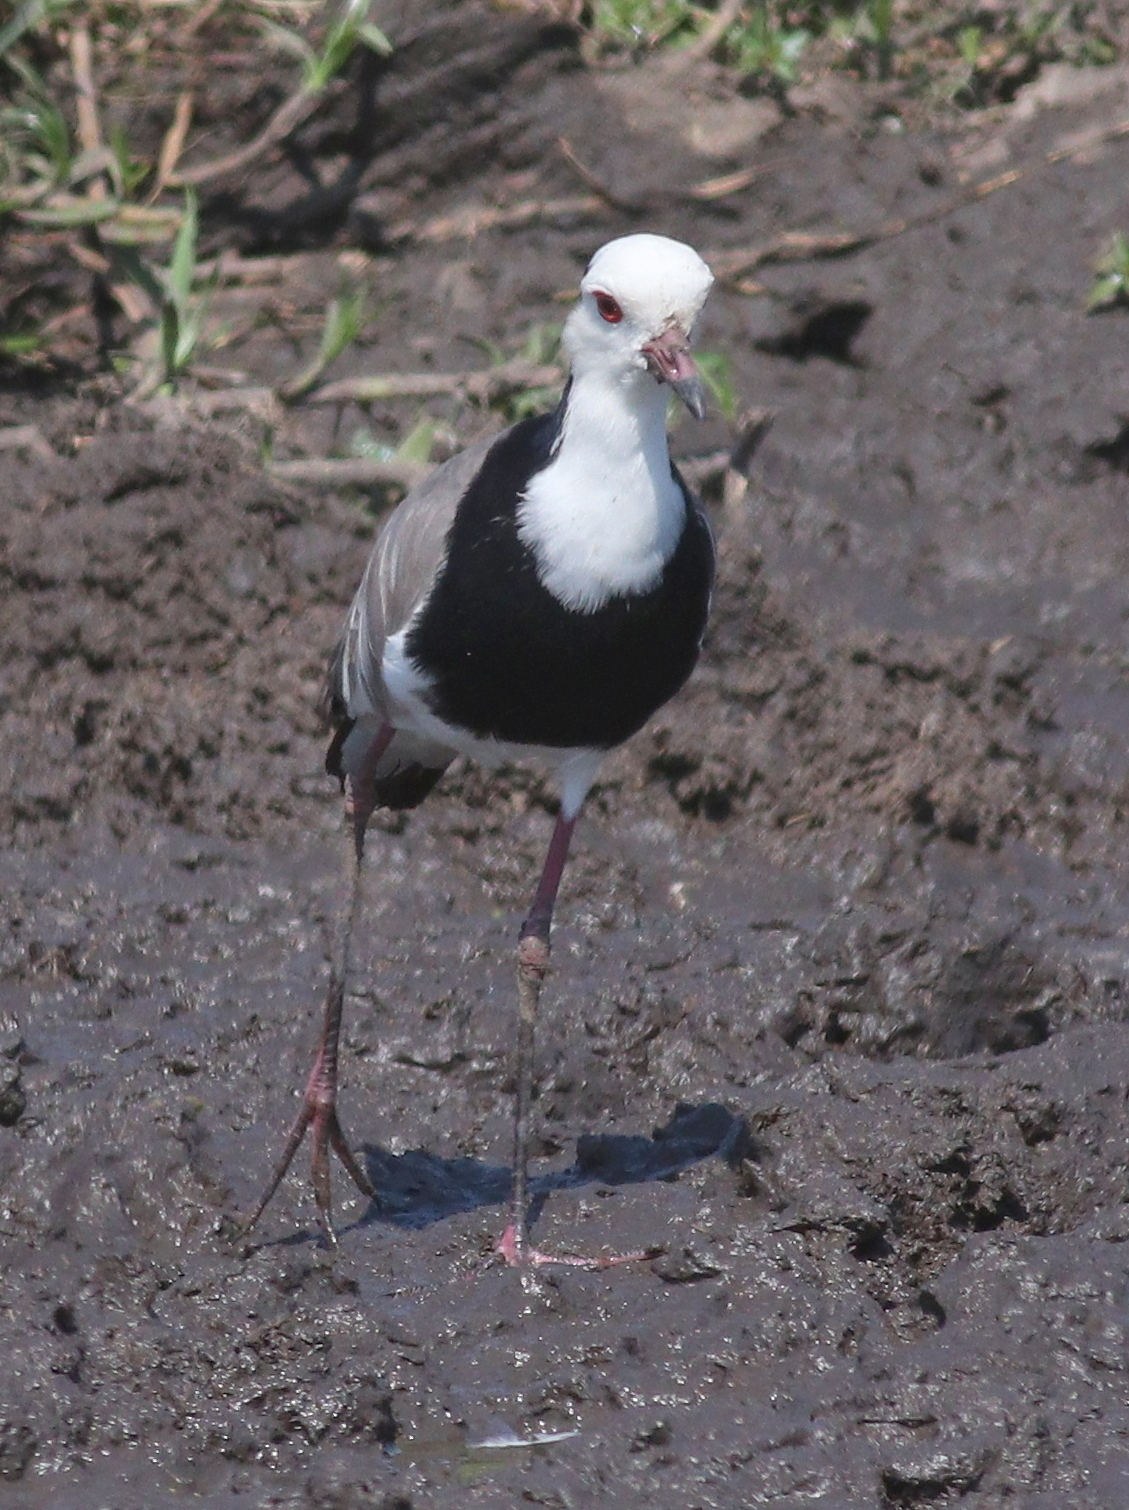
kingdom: Animalia
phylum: Chordata
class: Aves
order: Charadriiformes
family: Charadriidae
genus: Vanellus
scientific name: Vanellus crassirostris
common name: Long-toed lapwing
